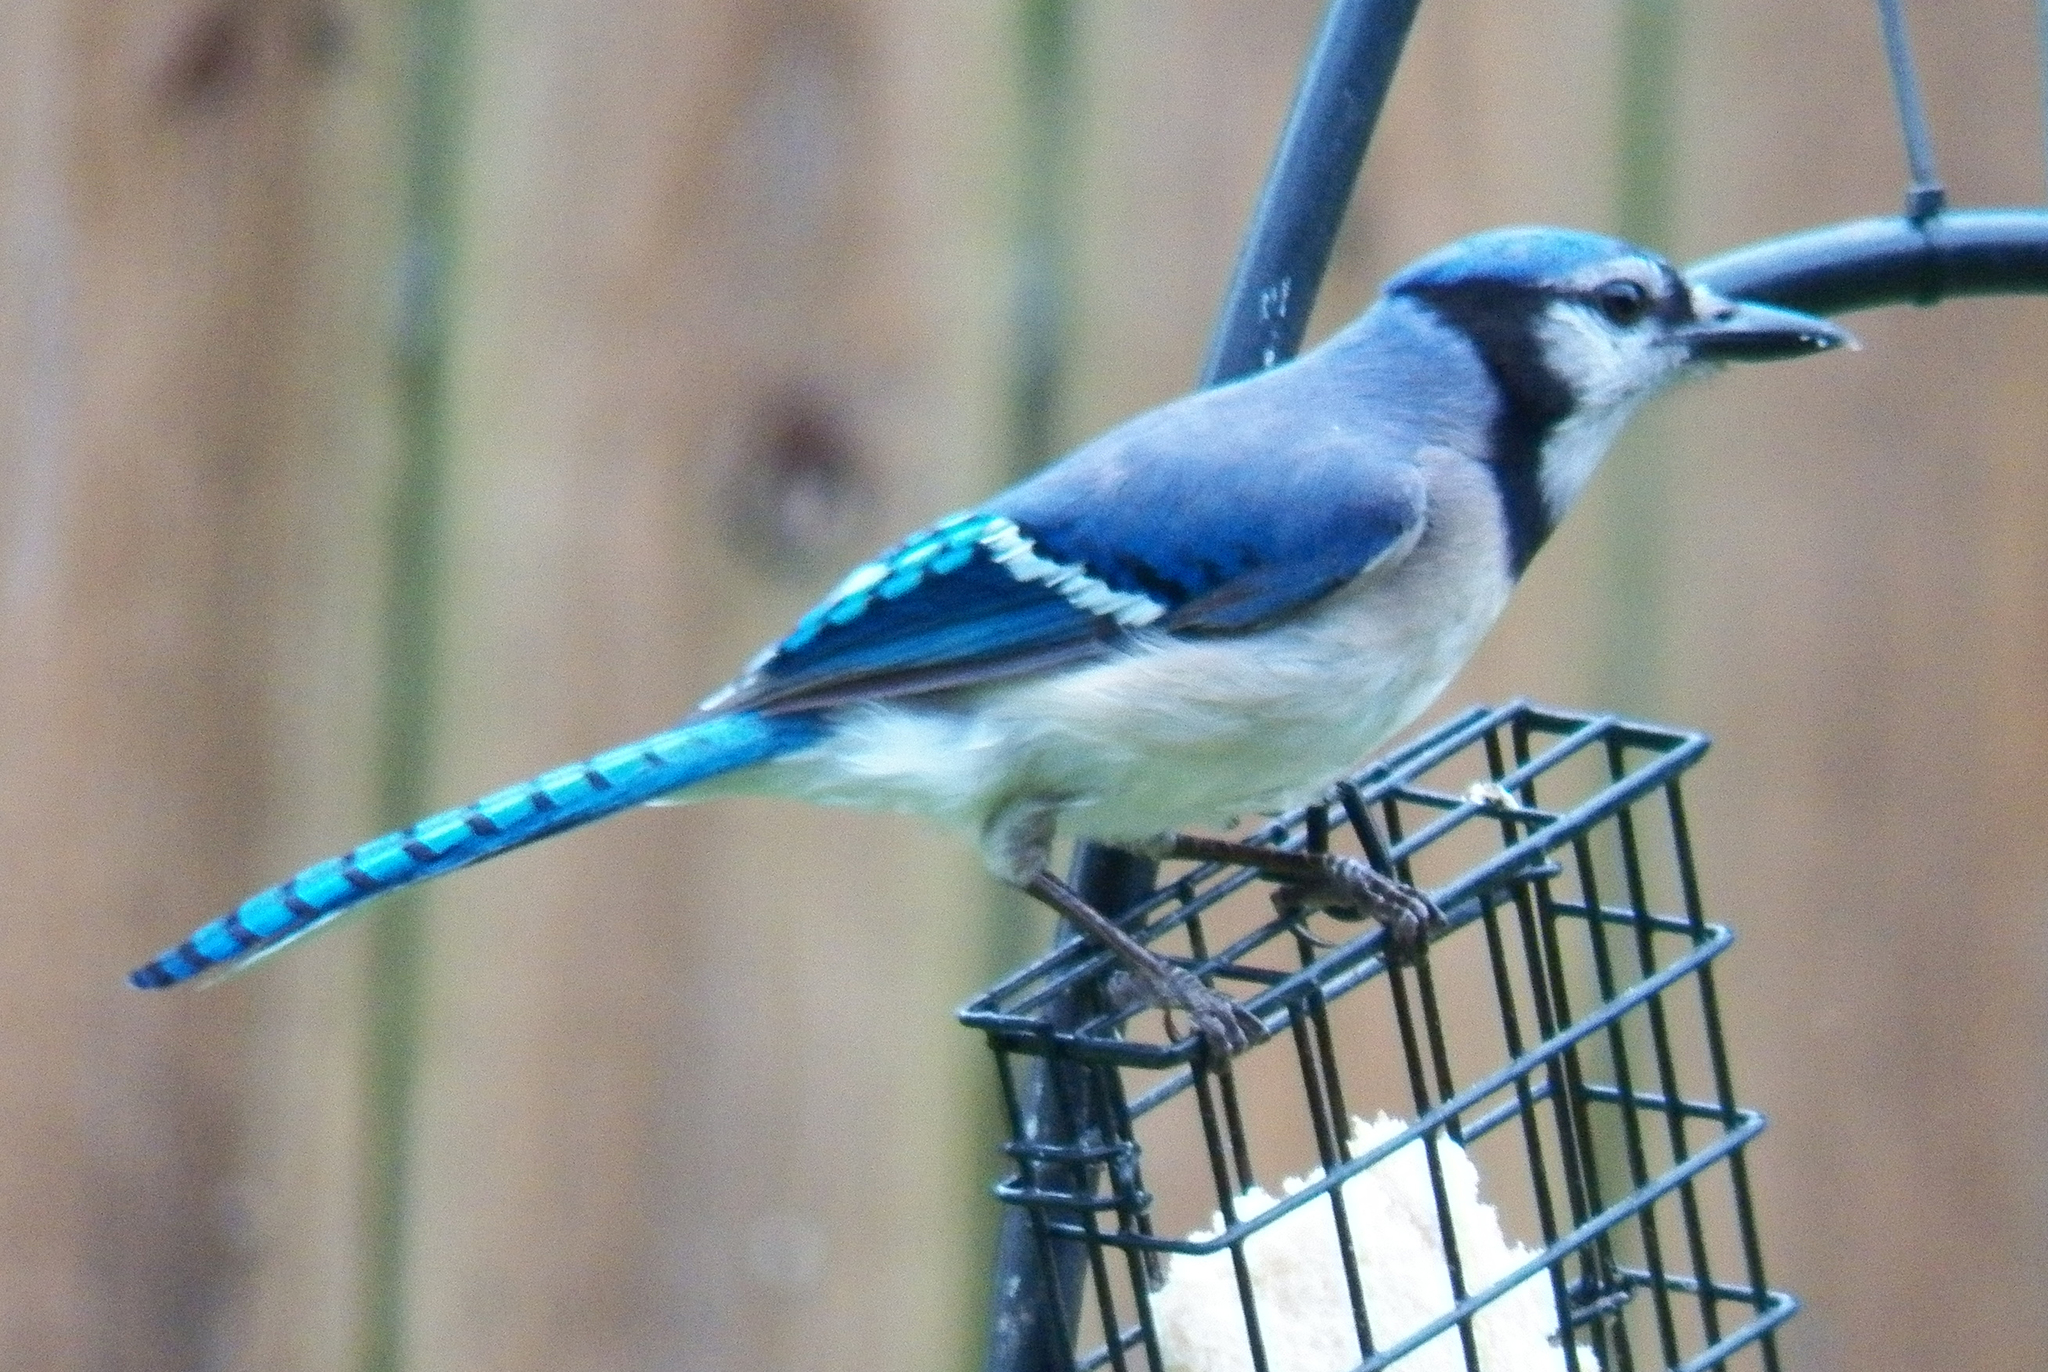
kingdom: Animalia
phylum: Chordata
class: Aves
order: Passeriformes
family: Corvidae
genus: Cyanocitta
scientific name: Cyanocitta cristata
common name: Blue jay
